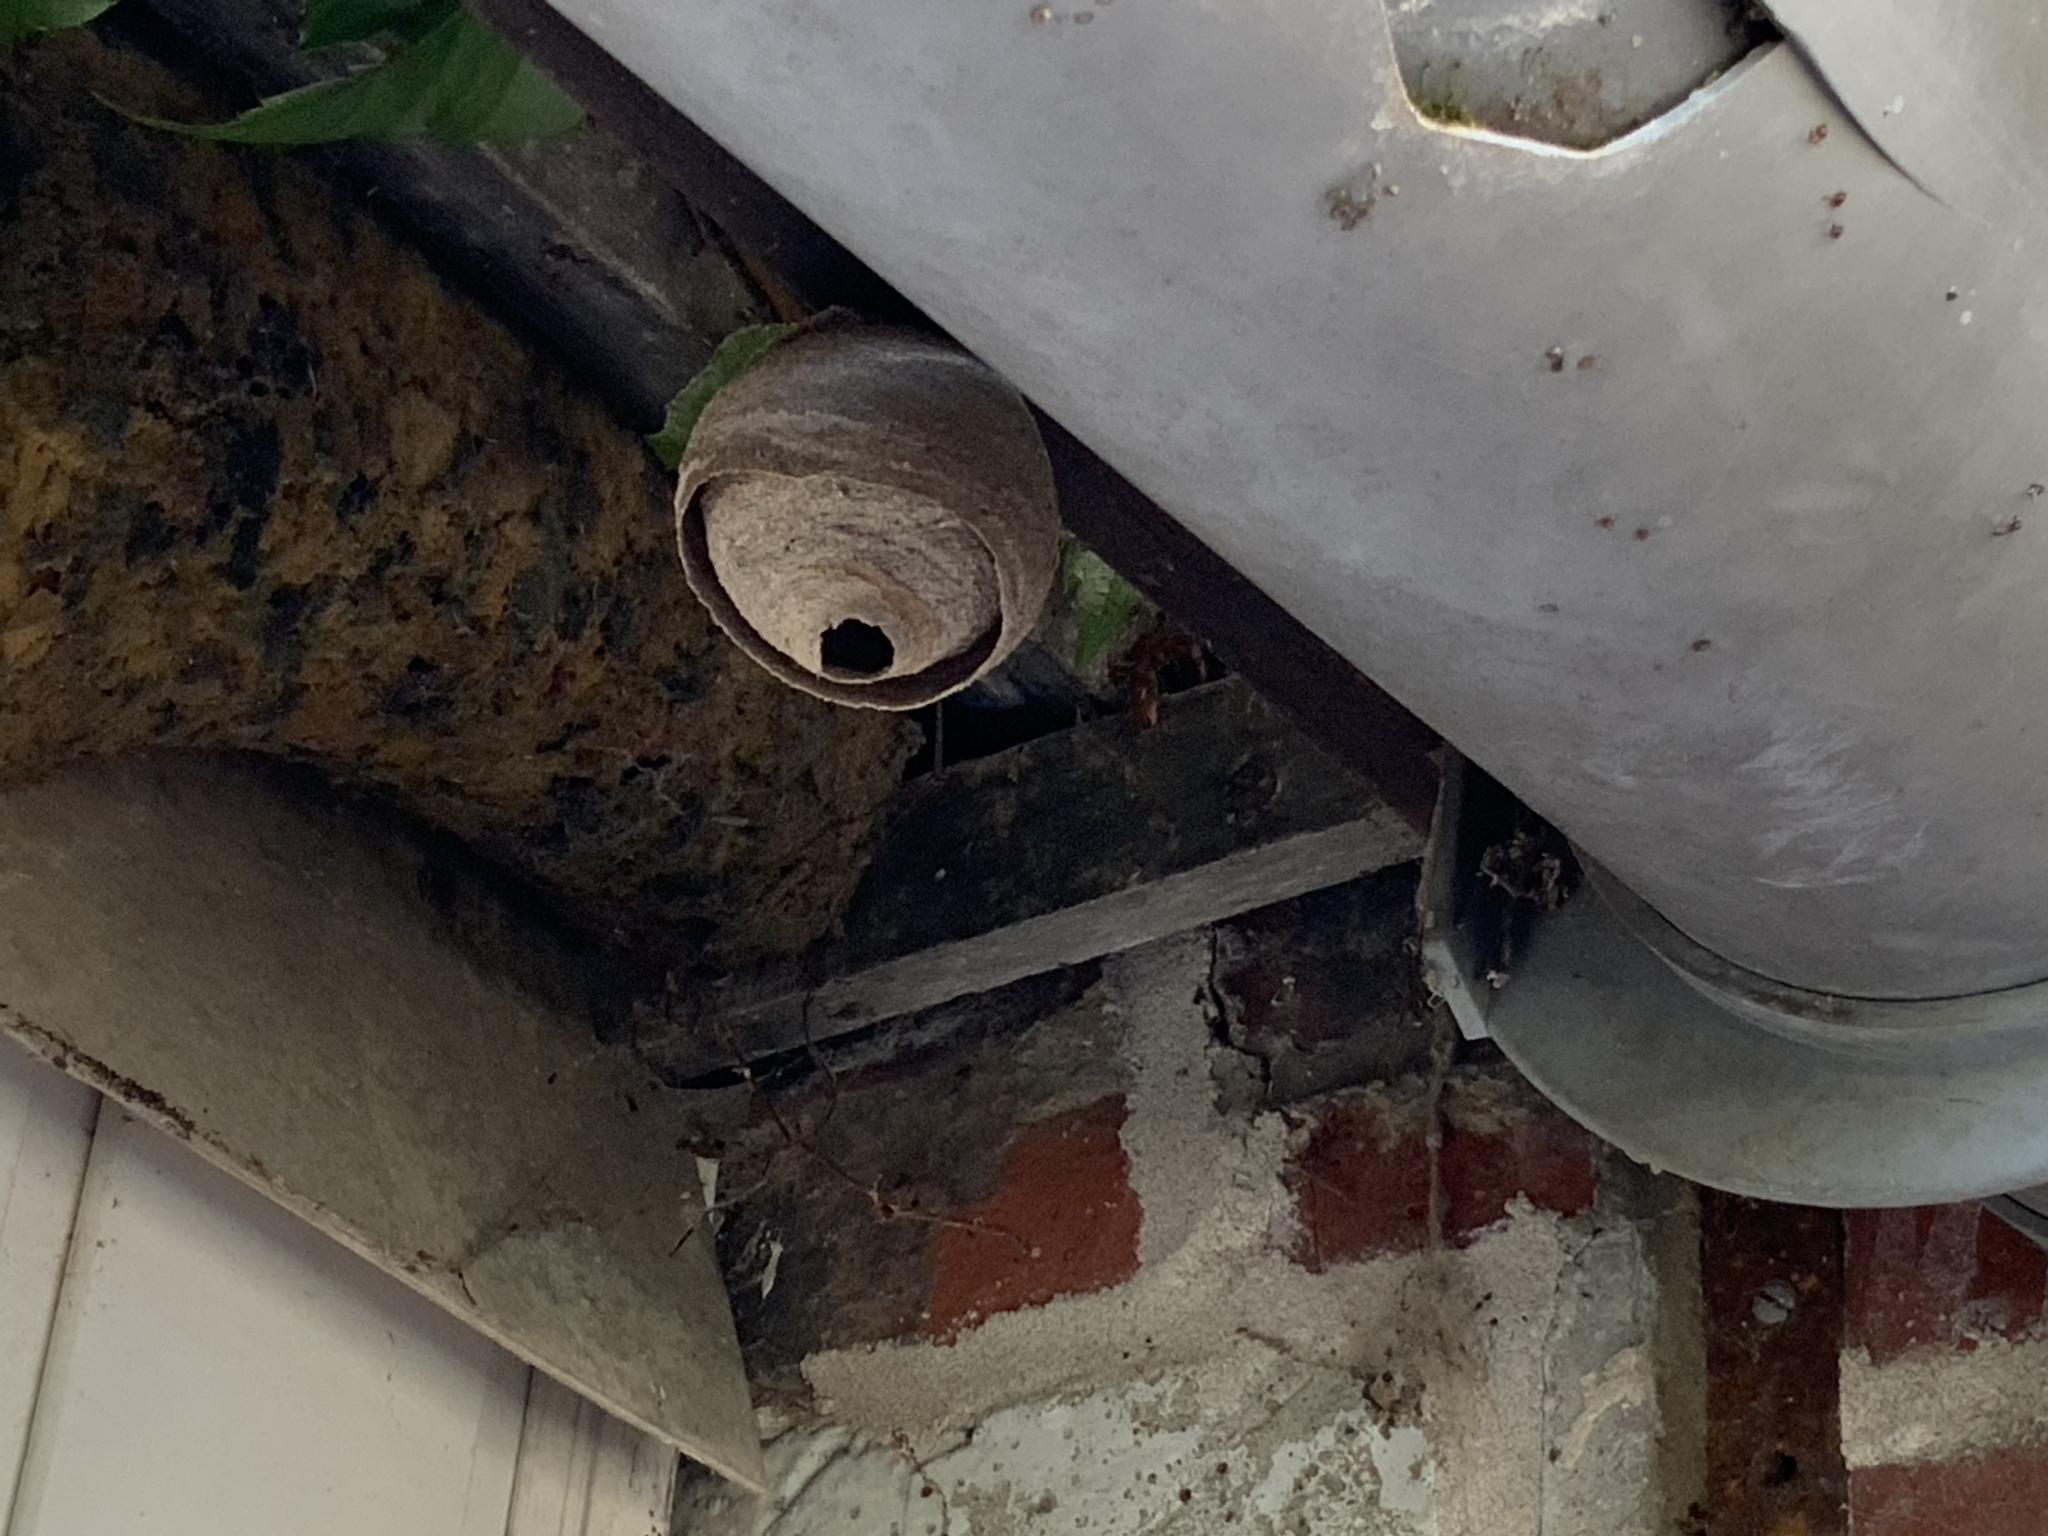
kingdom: Animalia
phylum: Arthropoda
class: Insecta
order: Hymenoptera
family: Vespidae
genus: Vespa
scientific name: Vespa velutina
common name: Asian hornet
